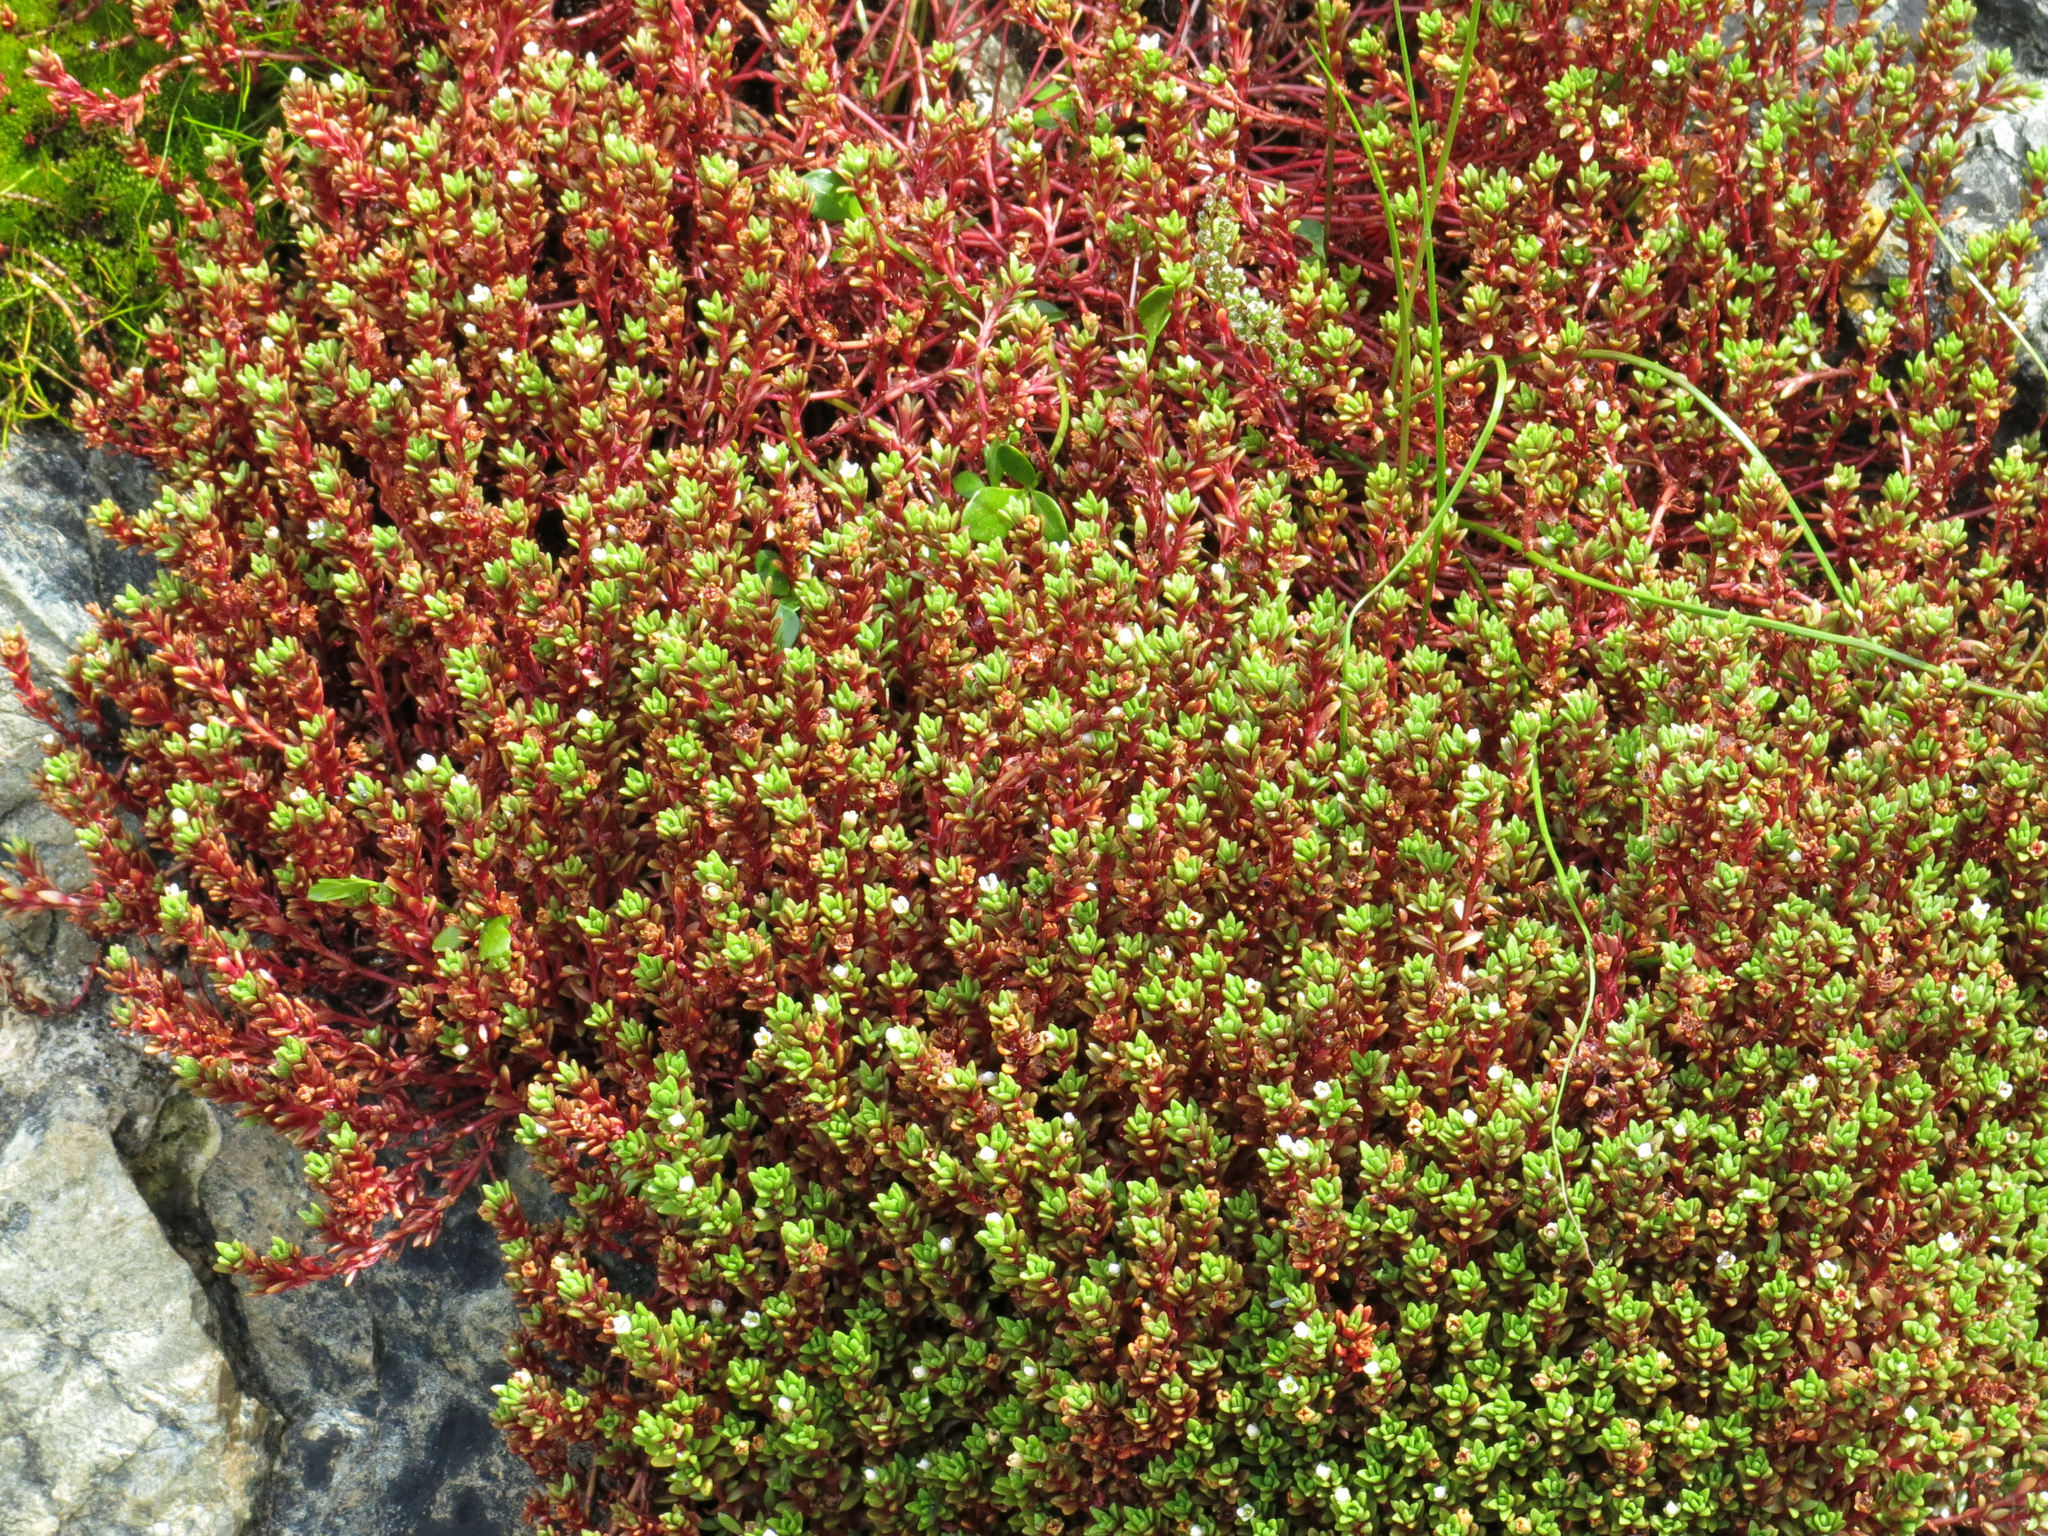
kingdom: Plantae
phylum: Tracheophyta
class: Magnoliopsida
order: Saxifragales
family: Crassulaceae
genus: Crassula
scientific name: Crassula moschata
